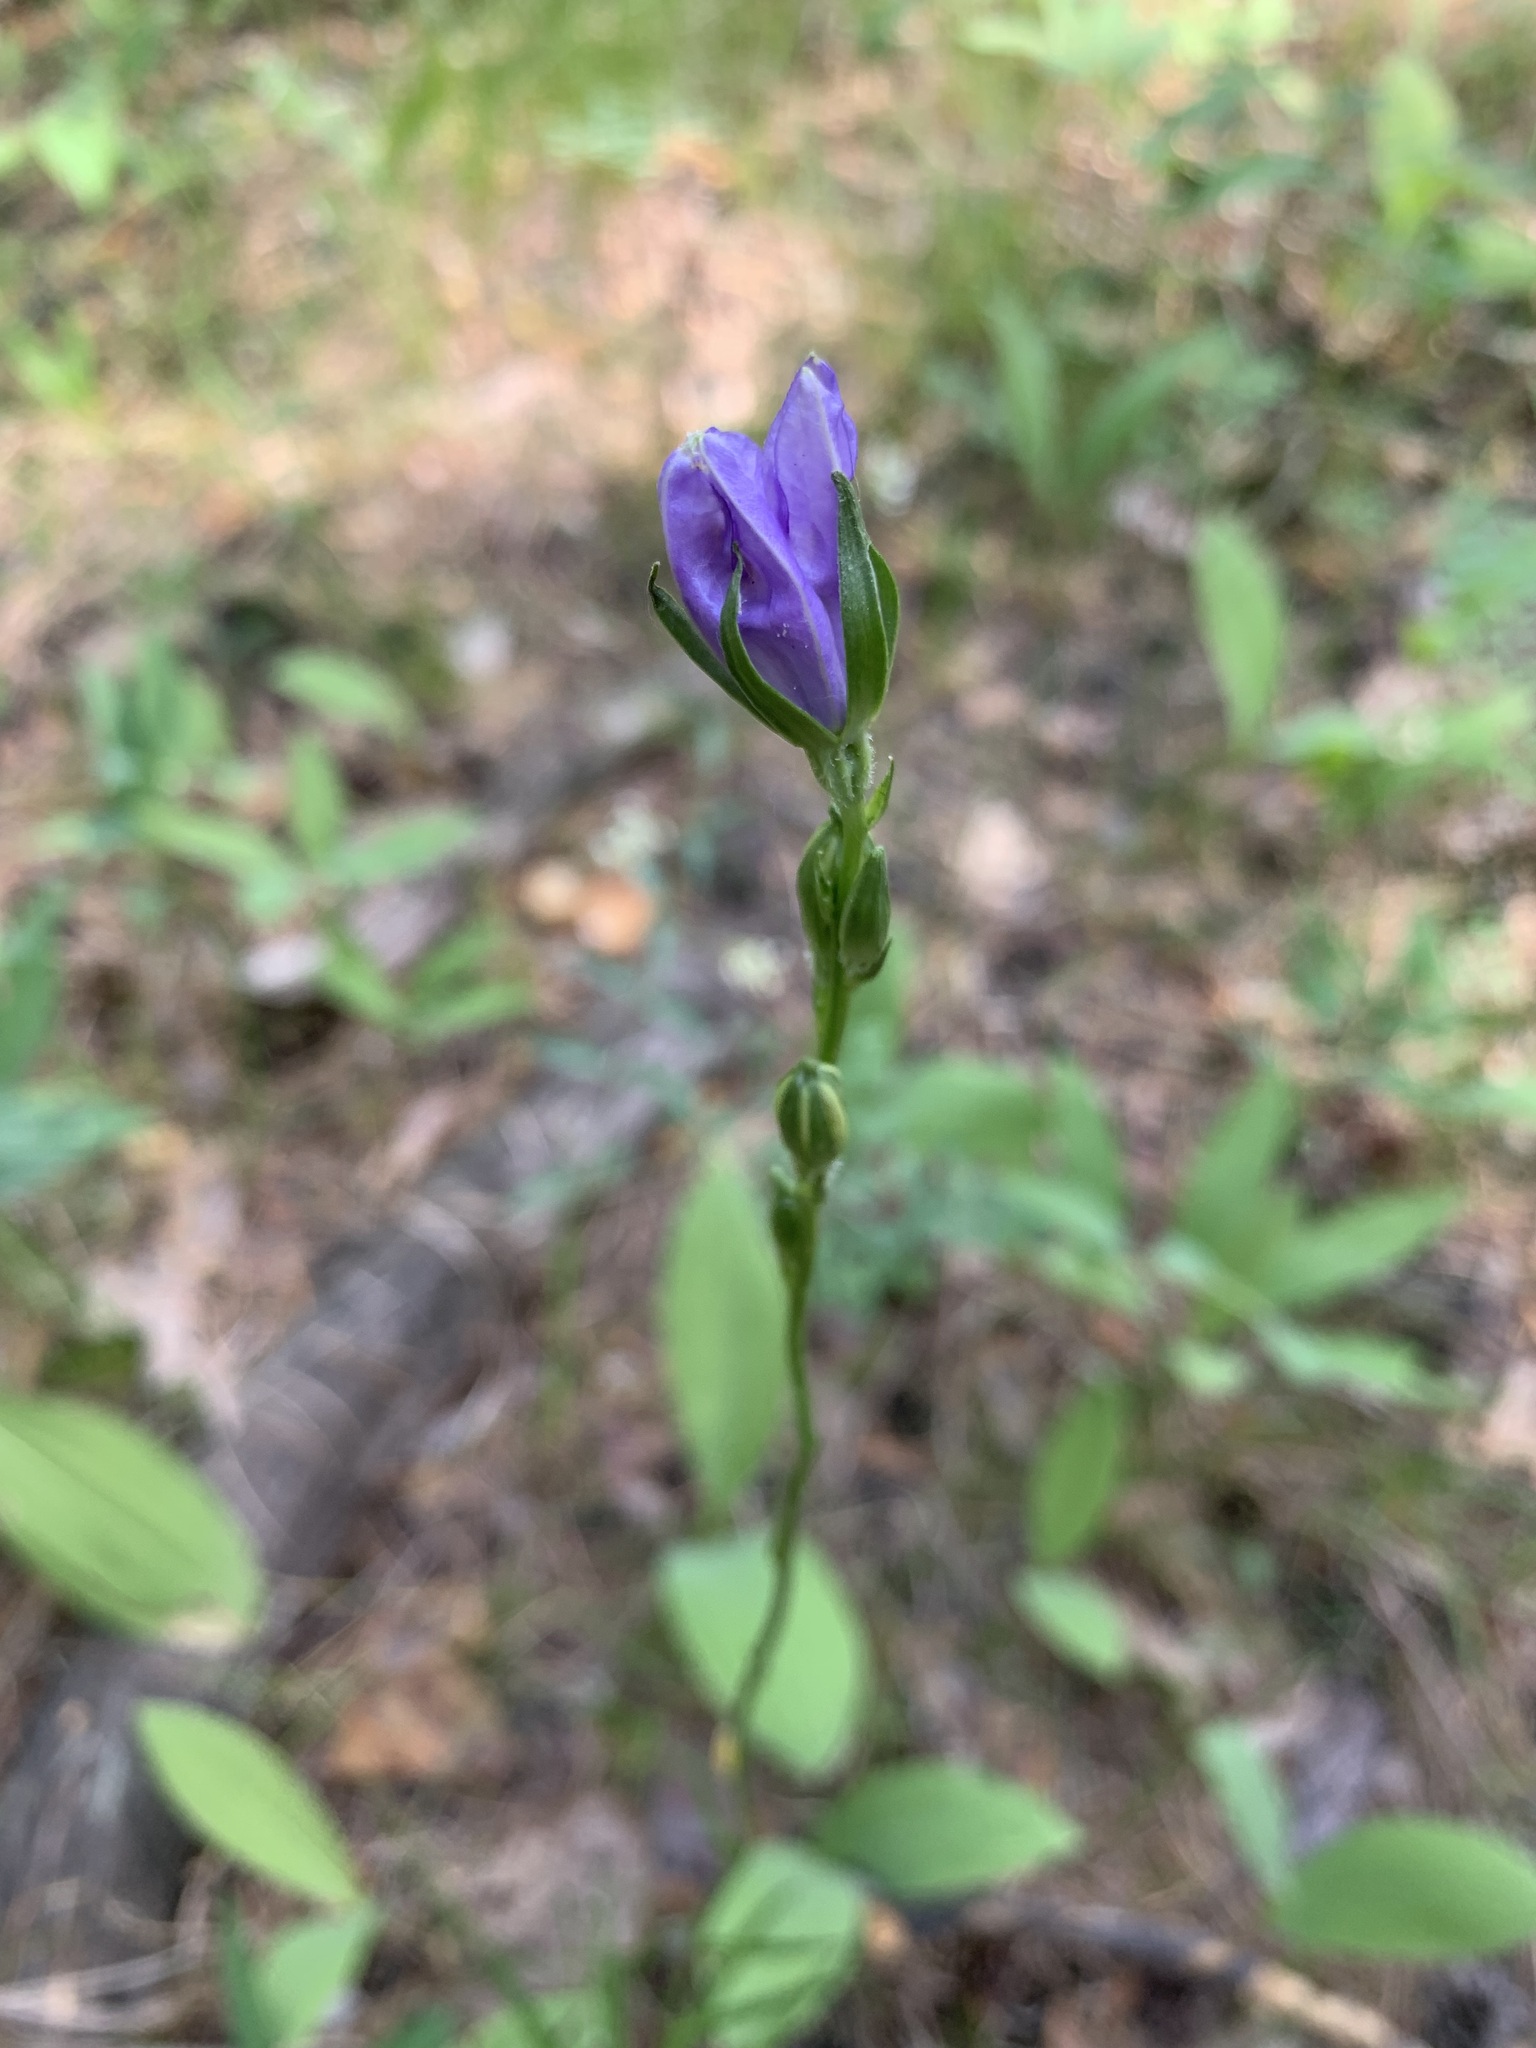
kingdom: Plantae
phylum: Tracheophyta
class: Magnoliopsida
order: Asterales
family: Campanulaceae
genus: Campanula
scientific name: Campanula stevenii
